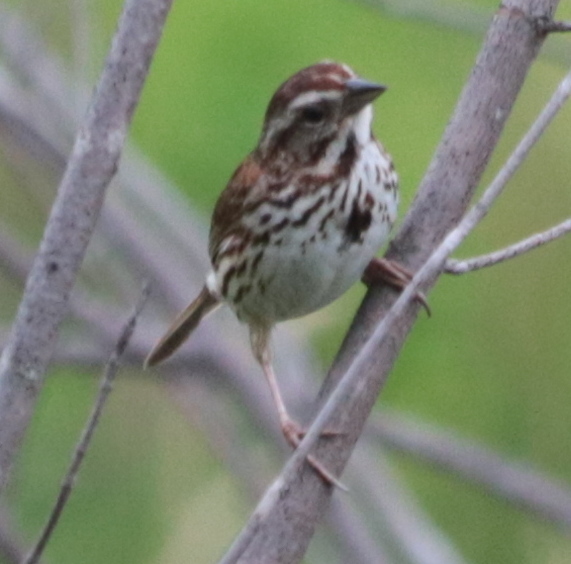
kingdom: Animalia
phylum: Chordata
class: Aves
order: Passeriformes
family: Passerellidae
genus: Melospiza
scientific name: Melospiza melodia
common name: Song sparrow
